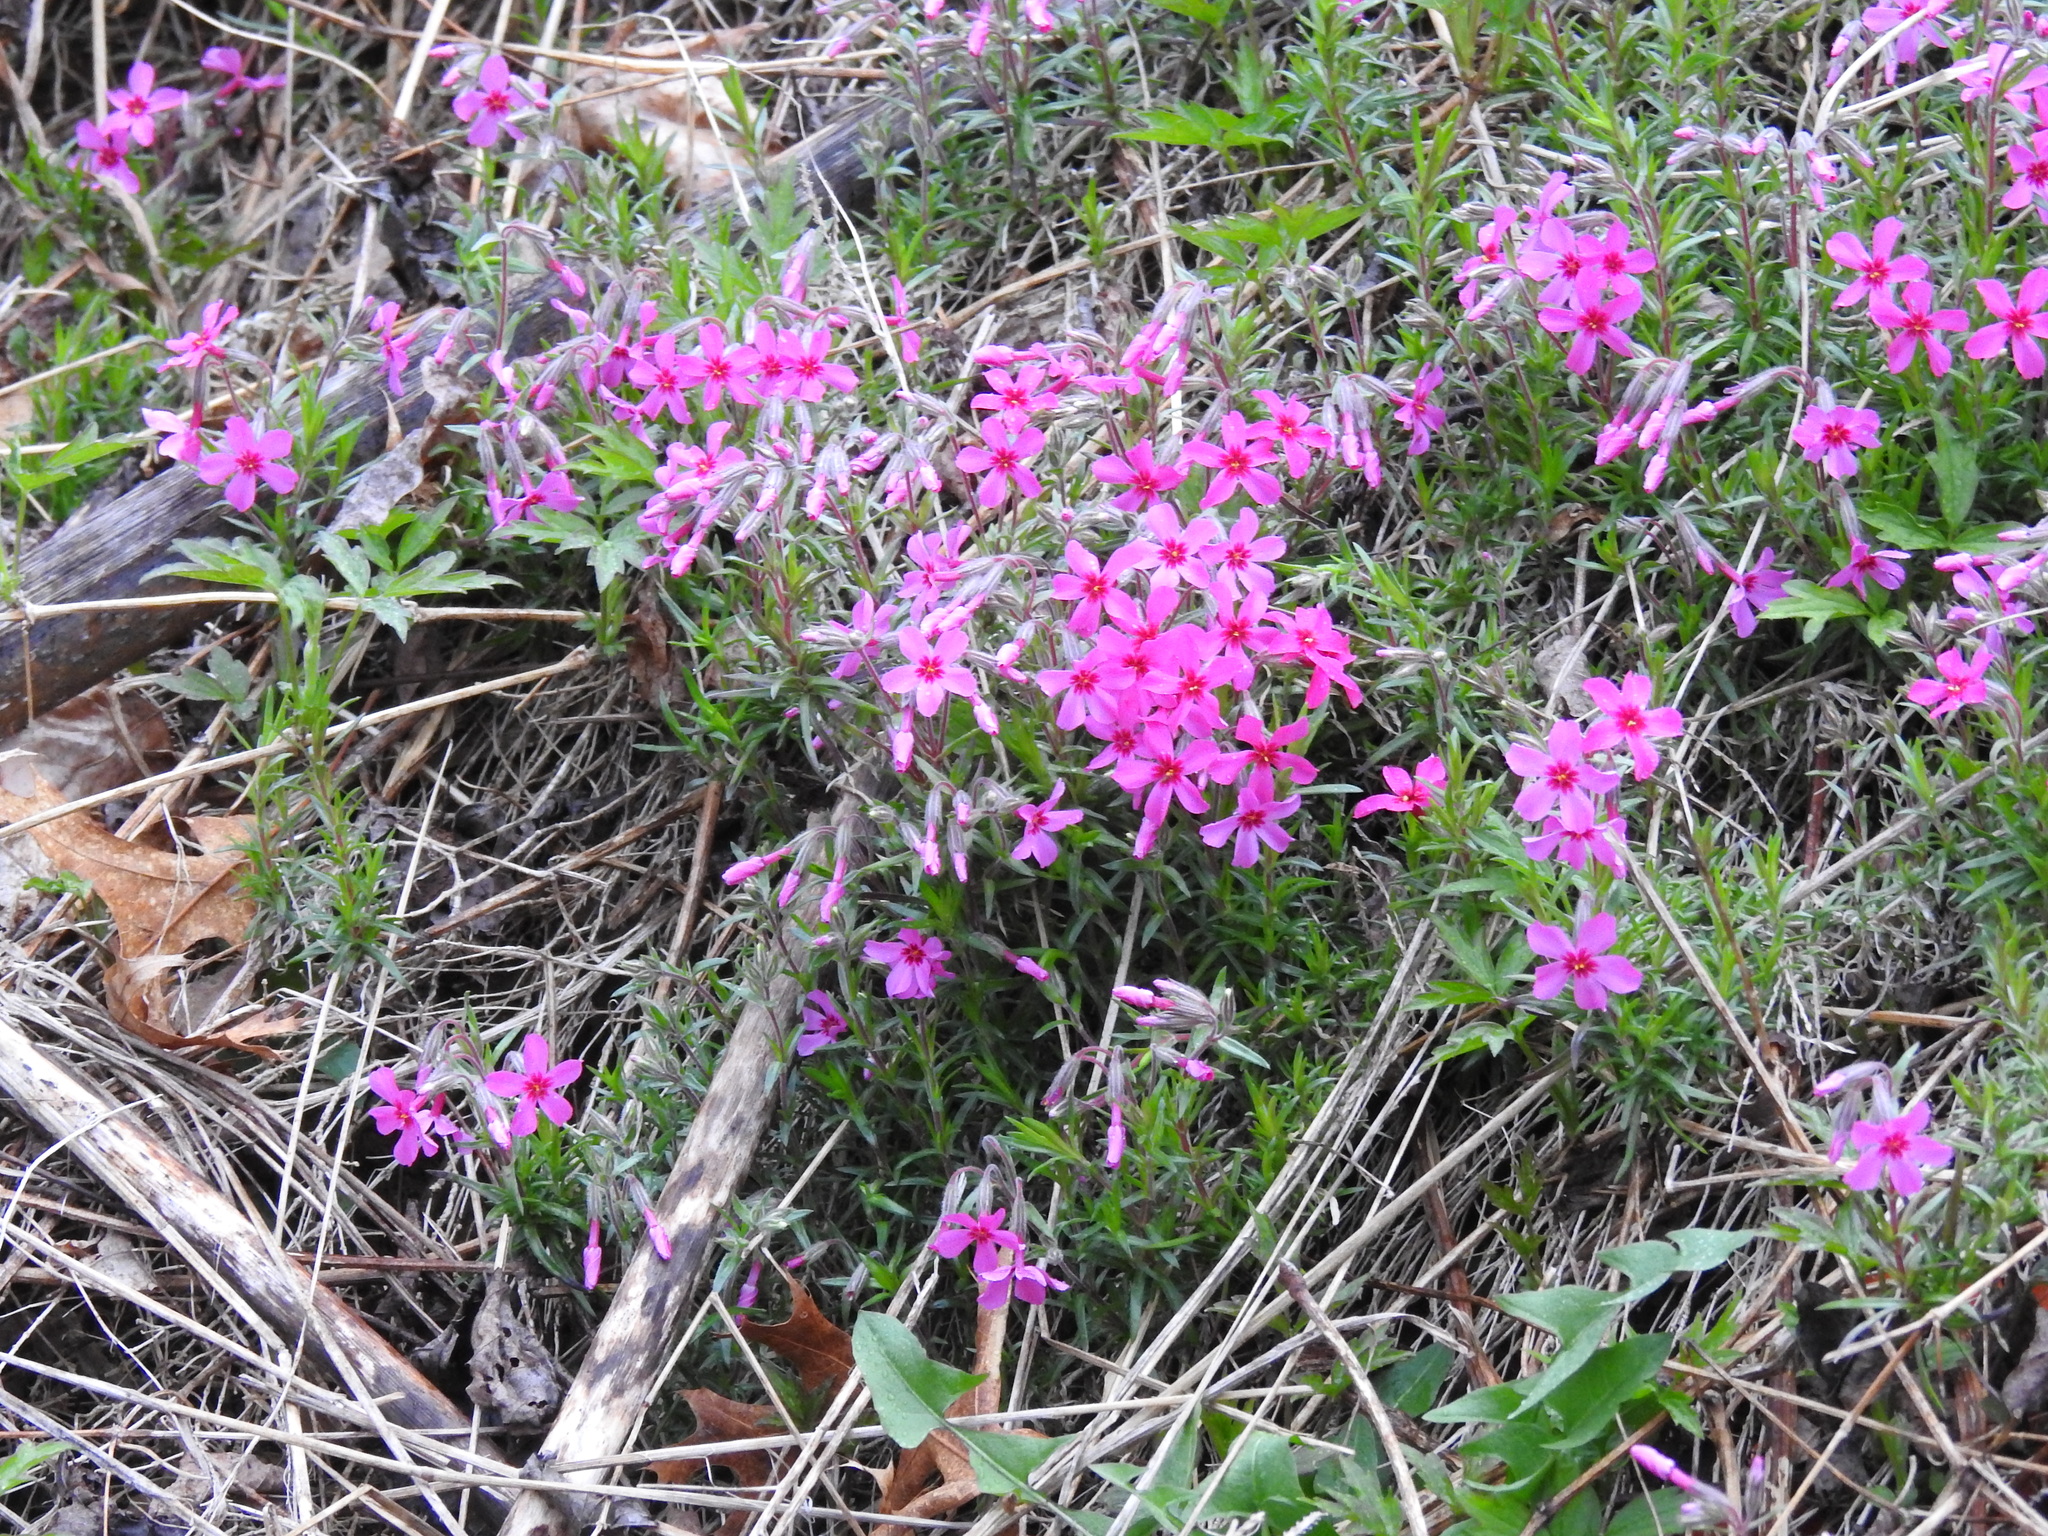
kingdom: Plantae
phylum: Tracheophyta
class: Magnoliopsida
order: Ericales
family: Polemoniaceae
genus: Phlox
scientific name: Phlox subulata
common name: Moss phlox
